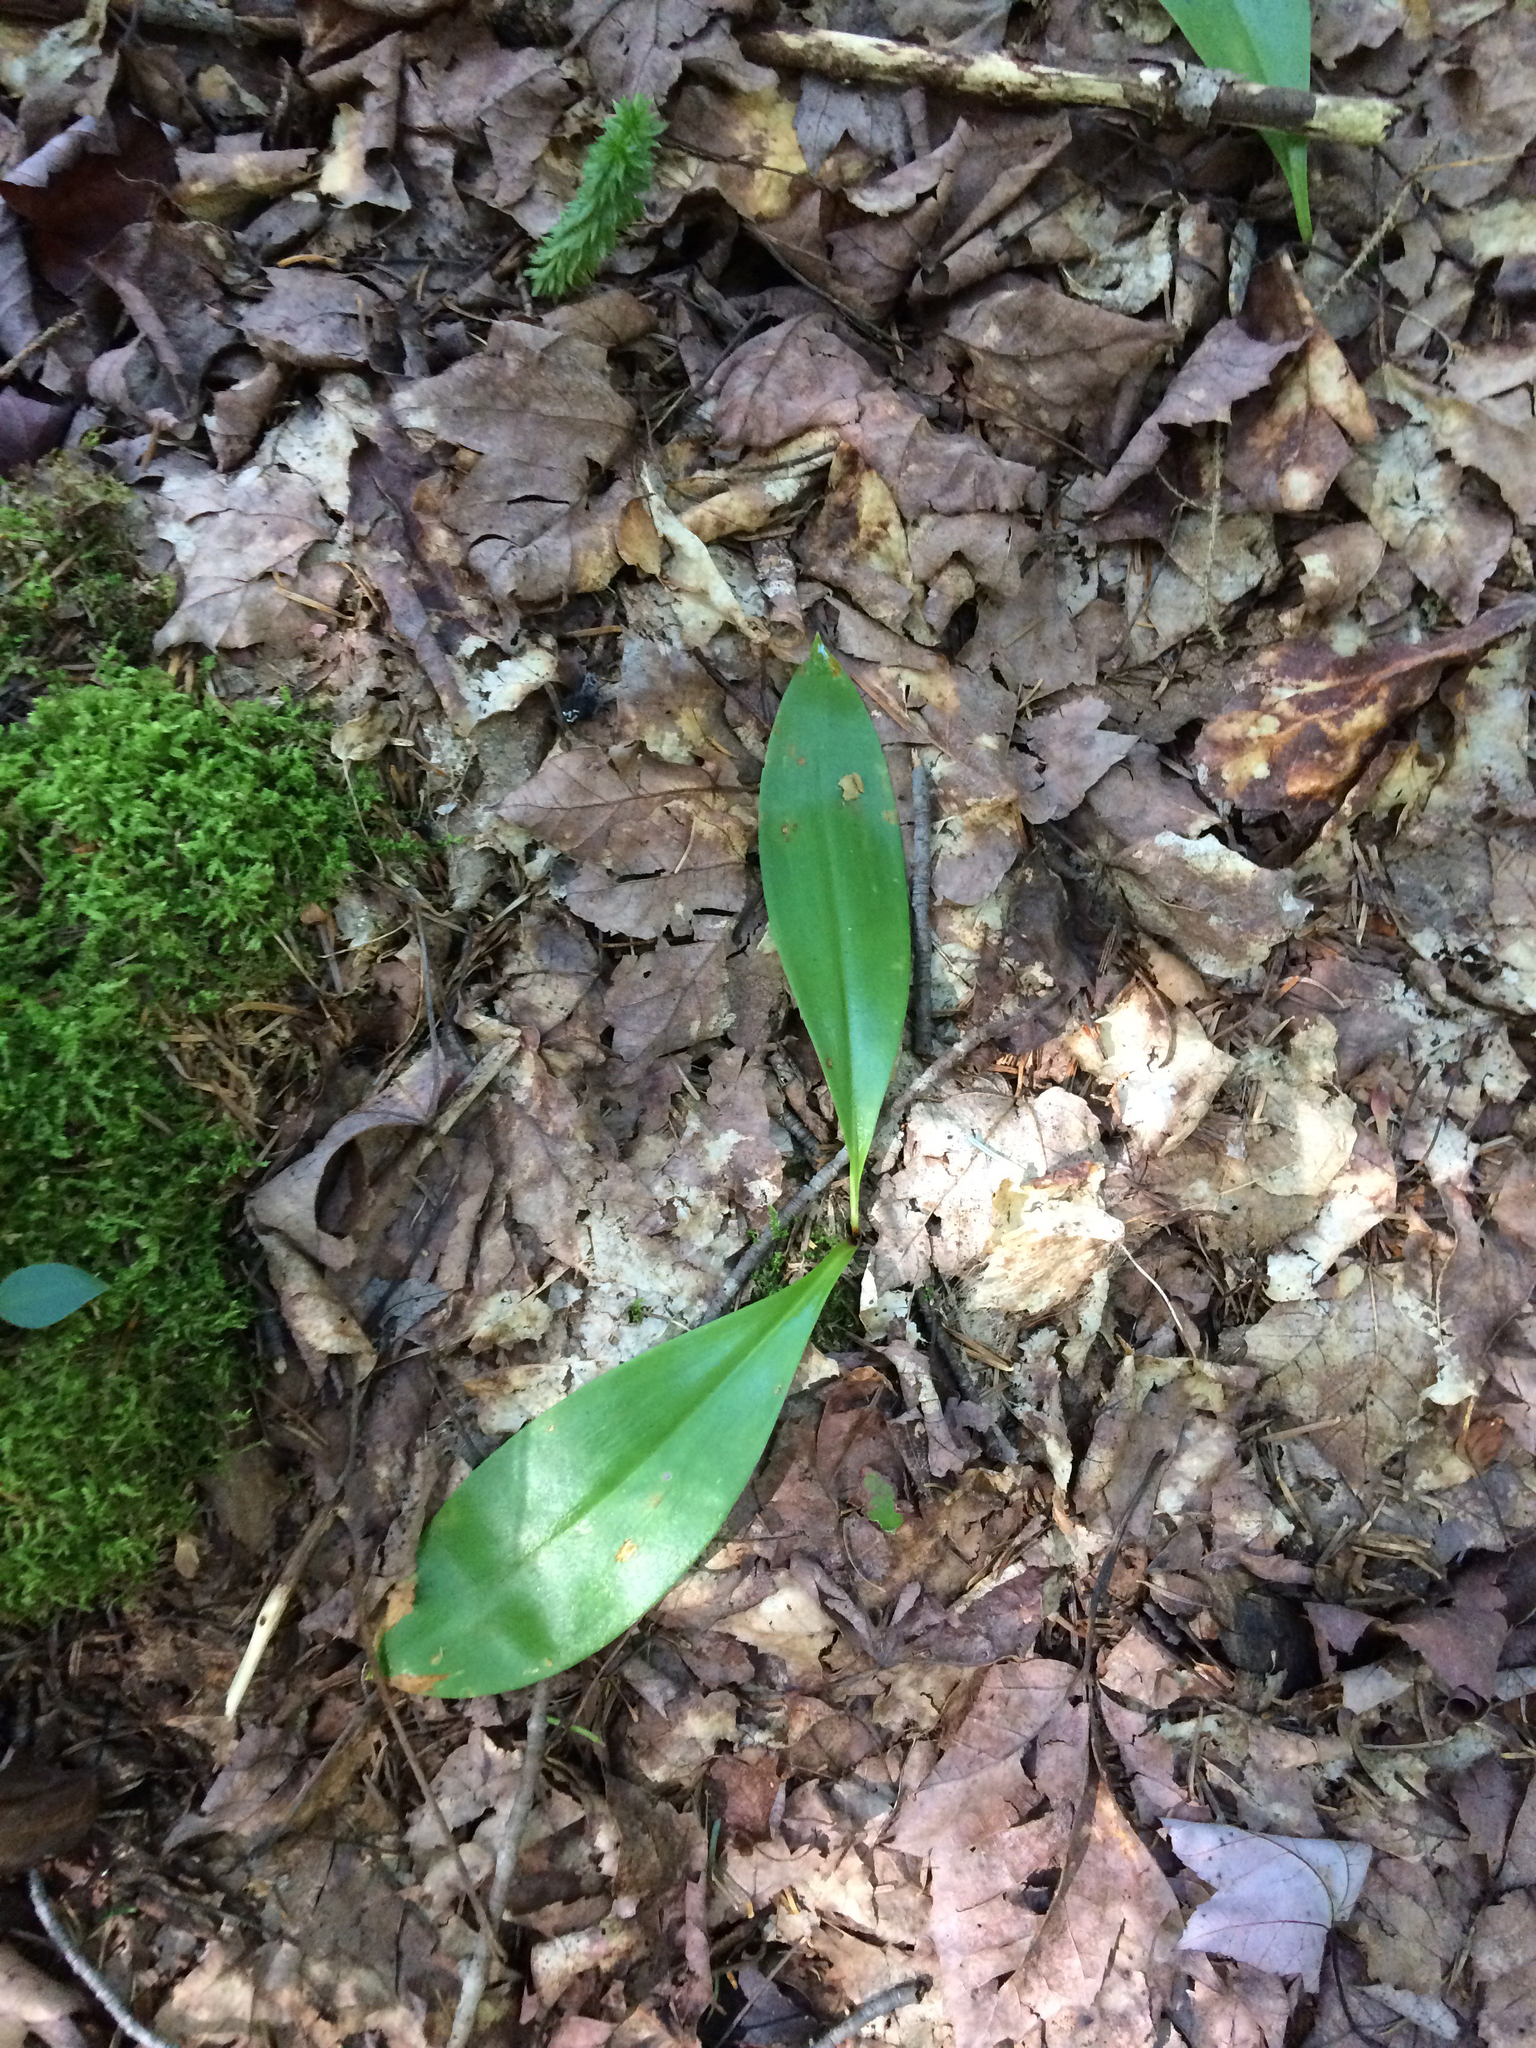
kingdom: Plantae
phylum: Tracheophyta
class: Liliopsida
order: Liliales
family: Liliaceae
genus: Clintonia
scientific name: Clintonia borealis
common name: Yellow clintonia
